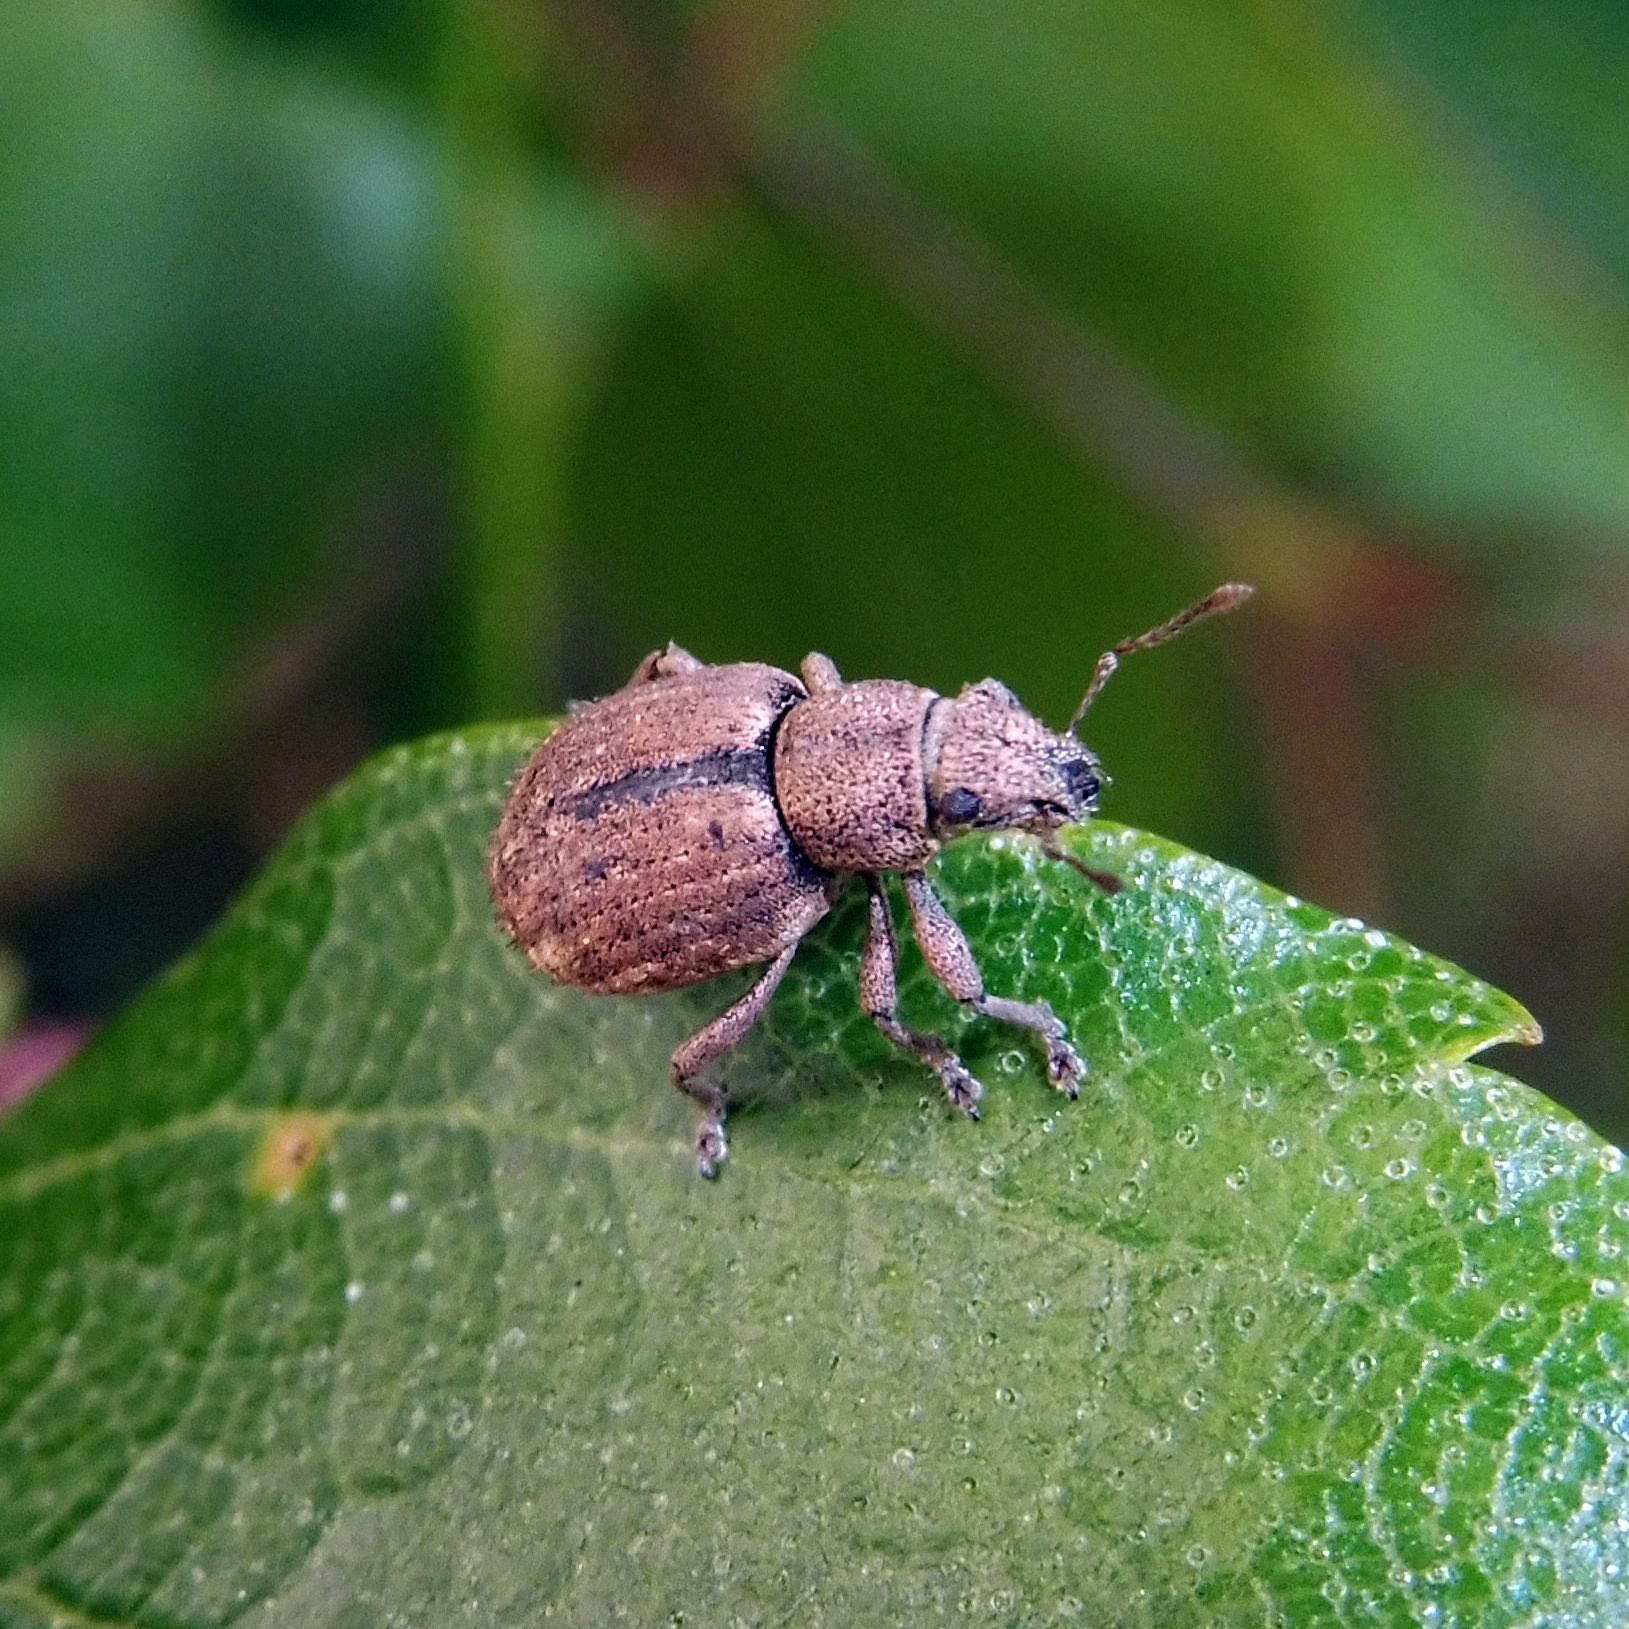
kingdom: Animalia
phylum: Arthropoda
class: Insecta
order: Coleoptera
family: Curculionidae
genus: Strophosoma
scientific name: Strophosoma melanogrammum
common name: Weevil
